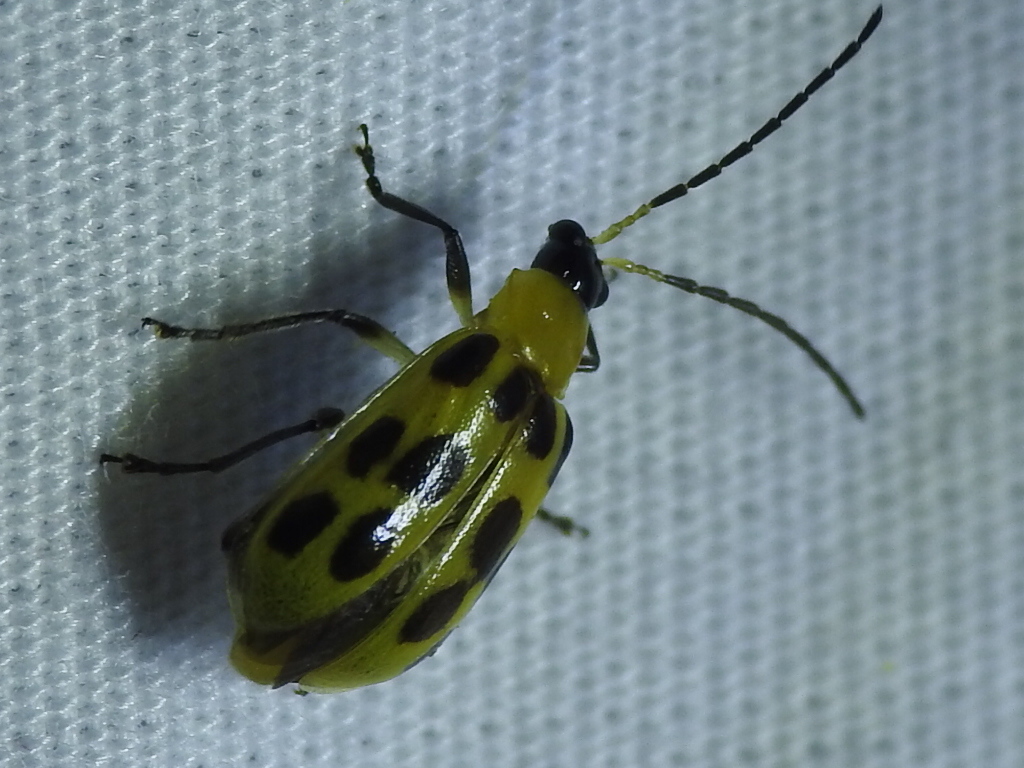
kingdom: Animalia
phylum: Arthropoda
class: Insecta
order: Coleoptera
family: Chrysomelidae
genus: Diabrotica
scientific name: Diabrotica undecimpunctata
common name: Spotted cucumber beetle
